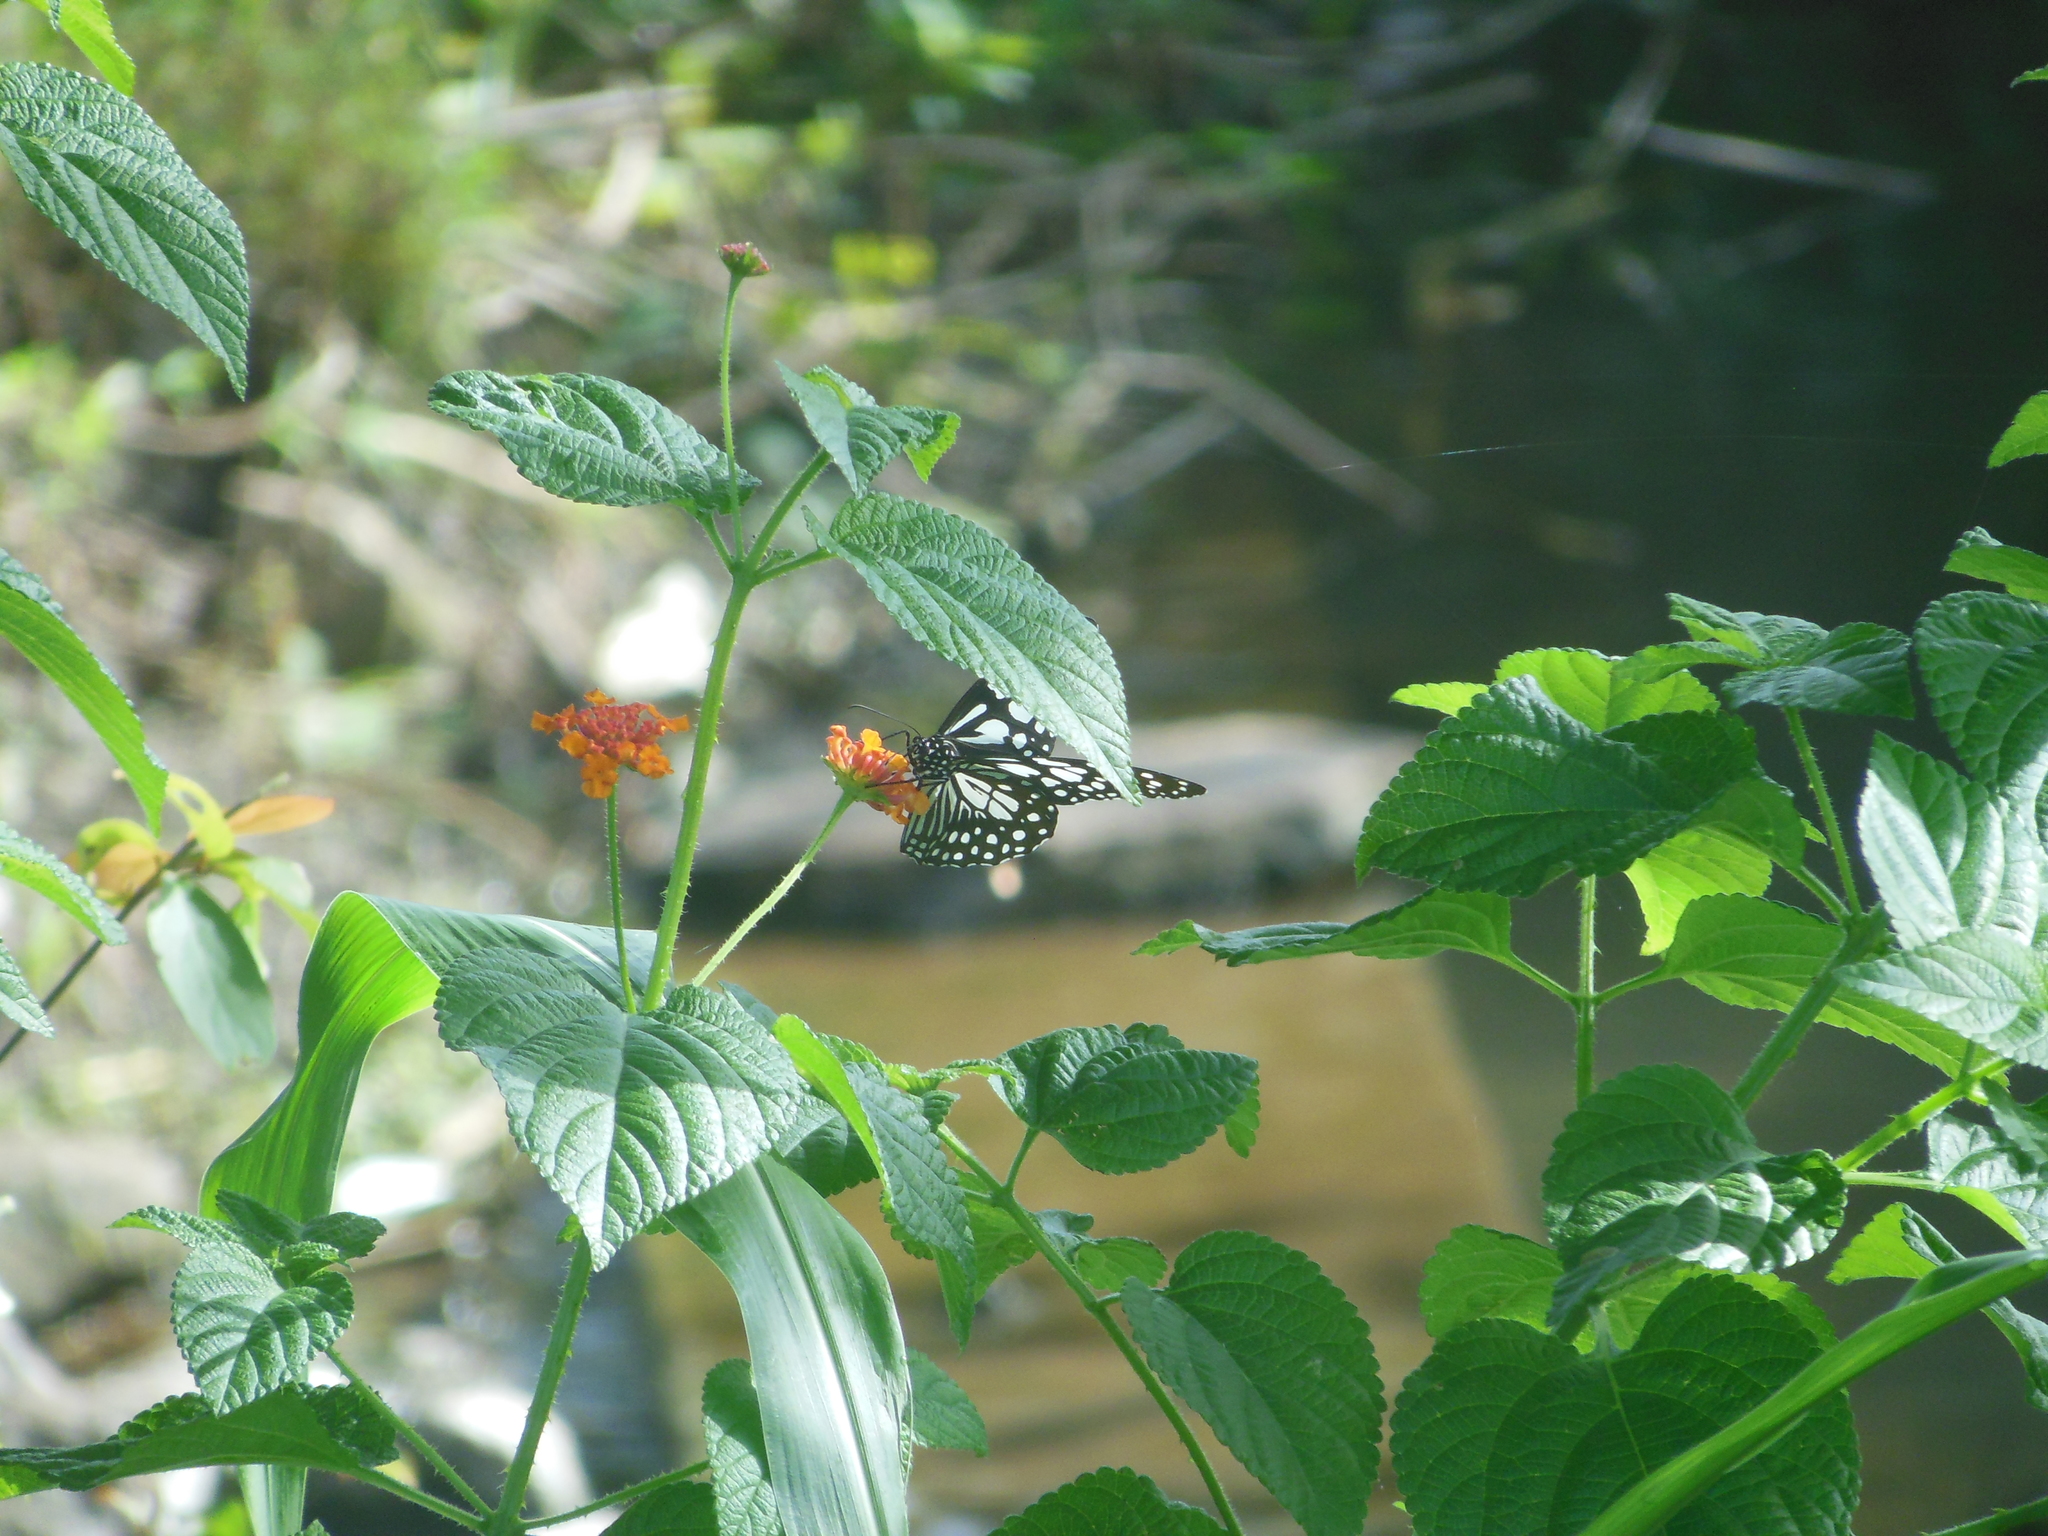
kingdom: Animalia
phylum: Arthropoda
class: Insecta
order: Lepidoptera
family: Nymphalidae
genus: Tirumala
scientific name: Tirumala limniace
